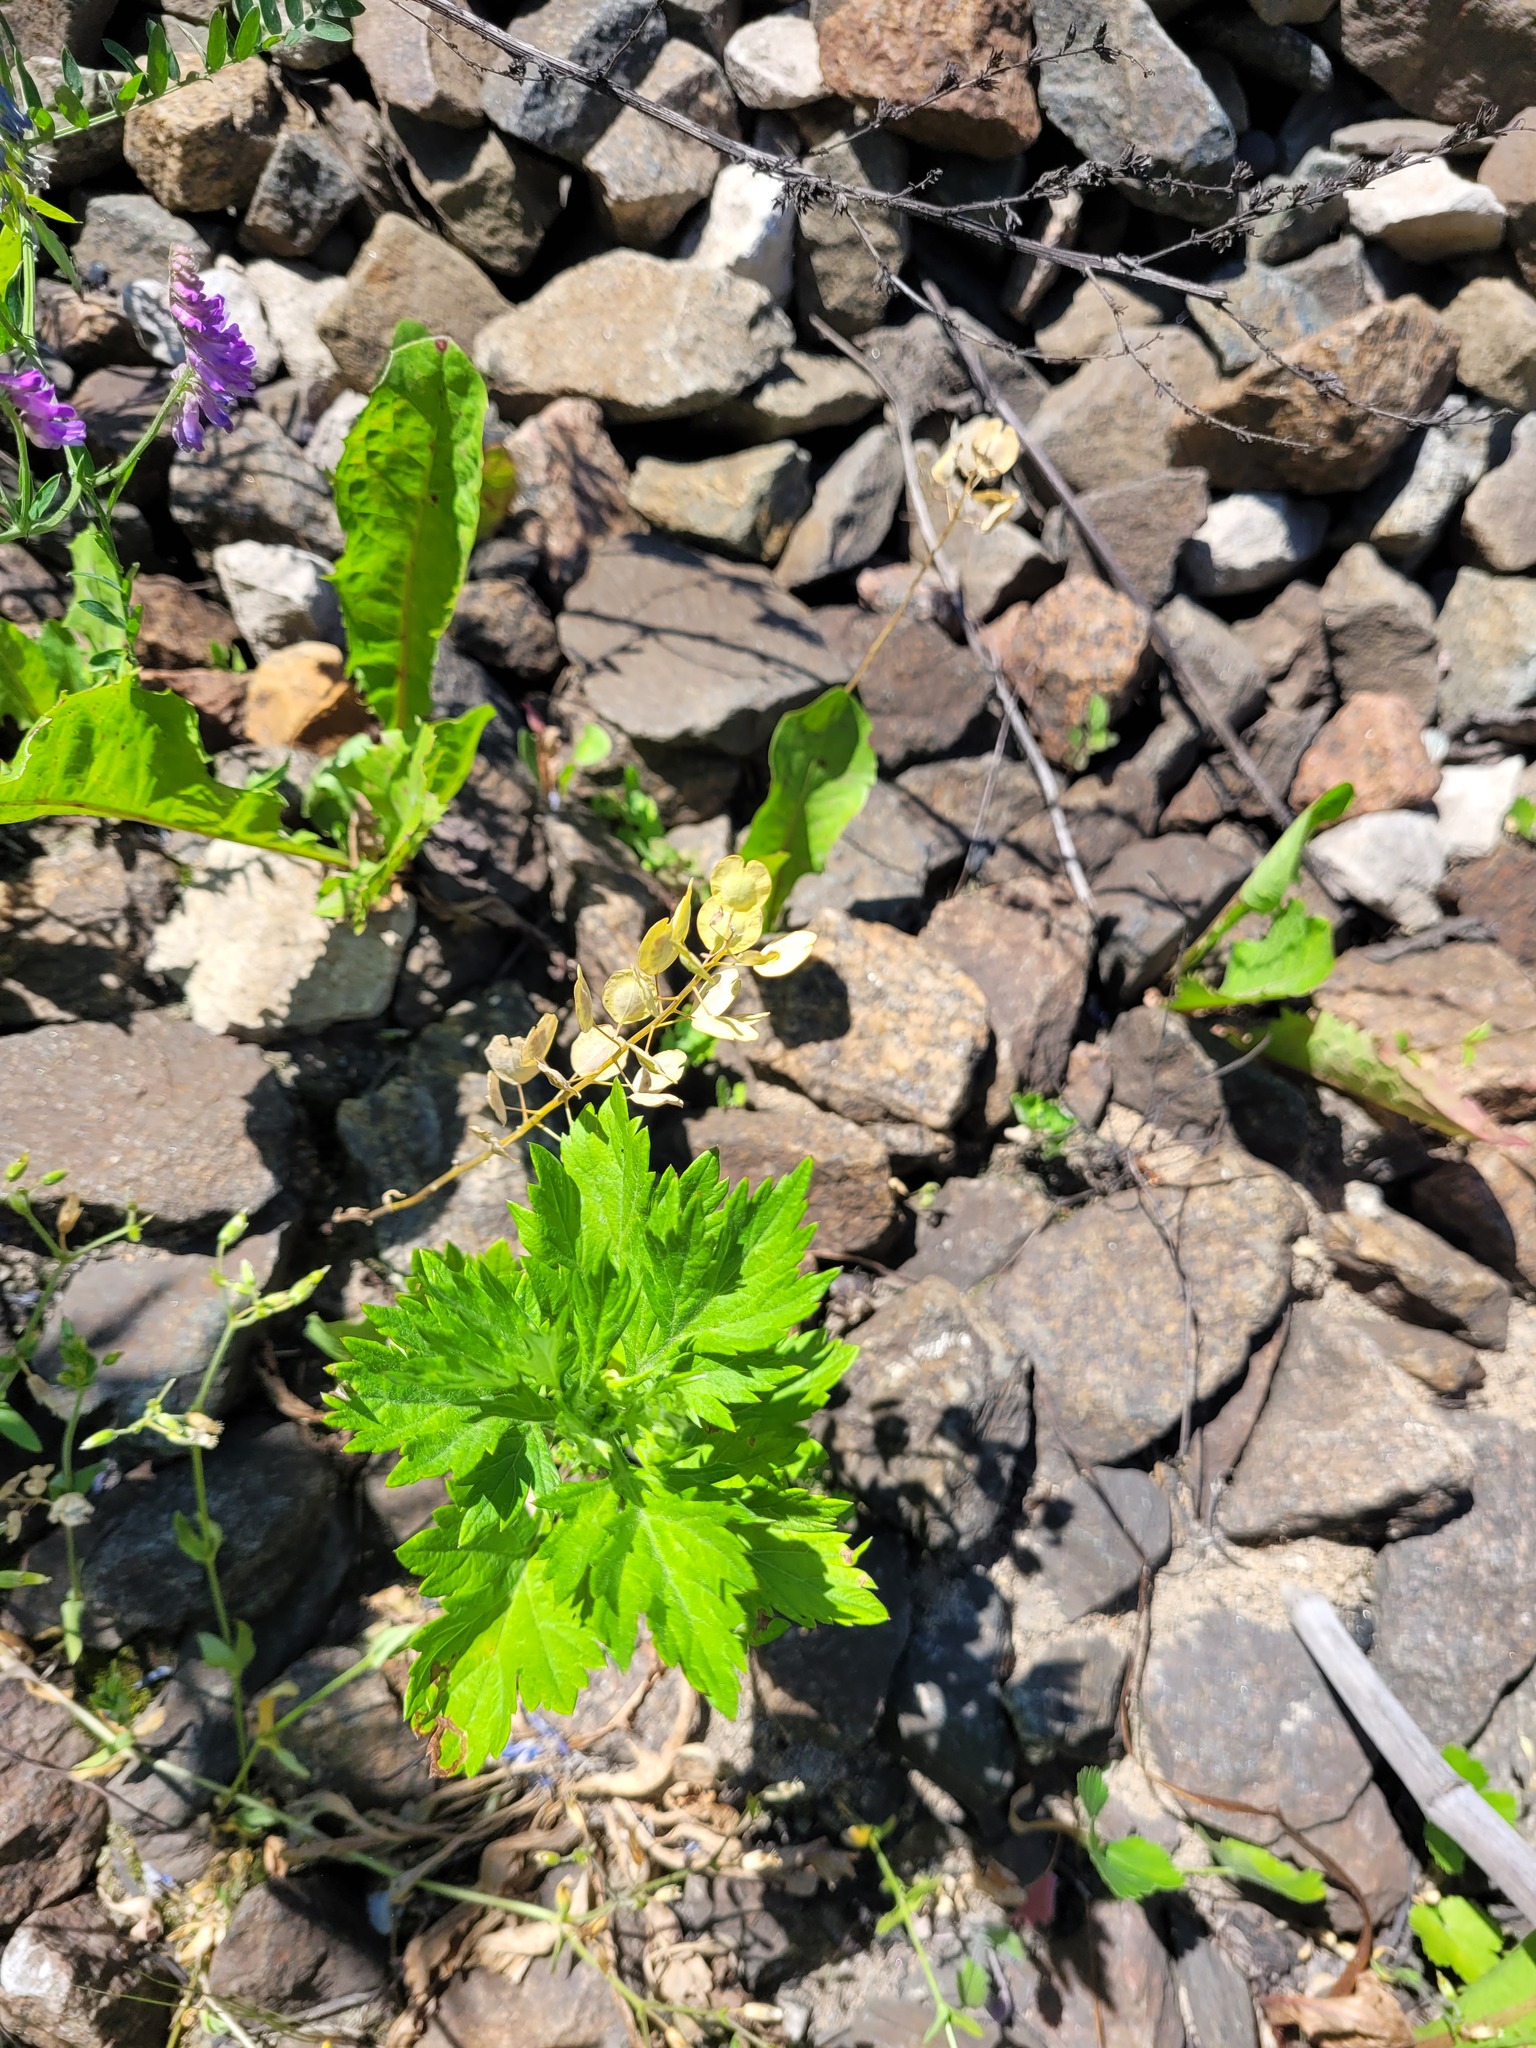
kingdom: Plantae
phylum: Tracheophyta
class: Magnoliopsida
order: Brassicales
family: Brassicaceae
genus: Thlaspi
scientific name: Thlaspi arvense
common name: Field pennycress
